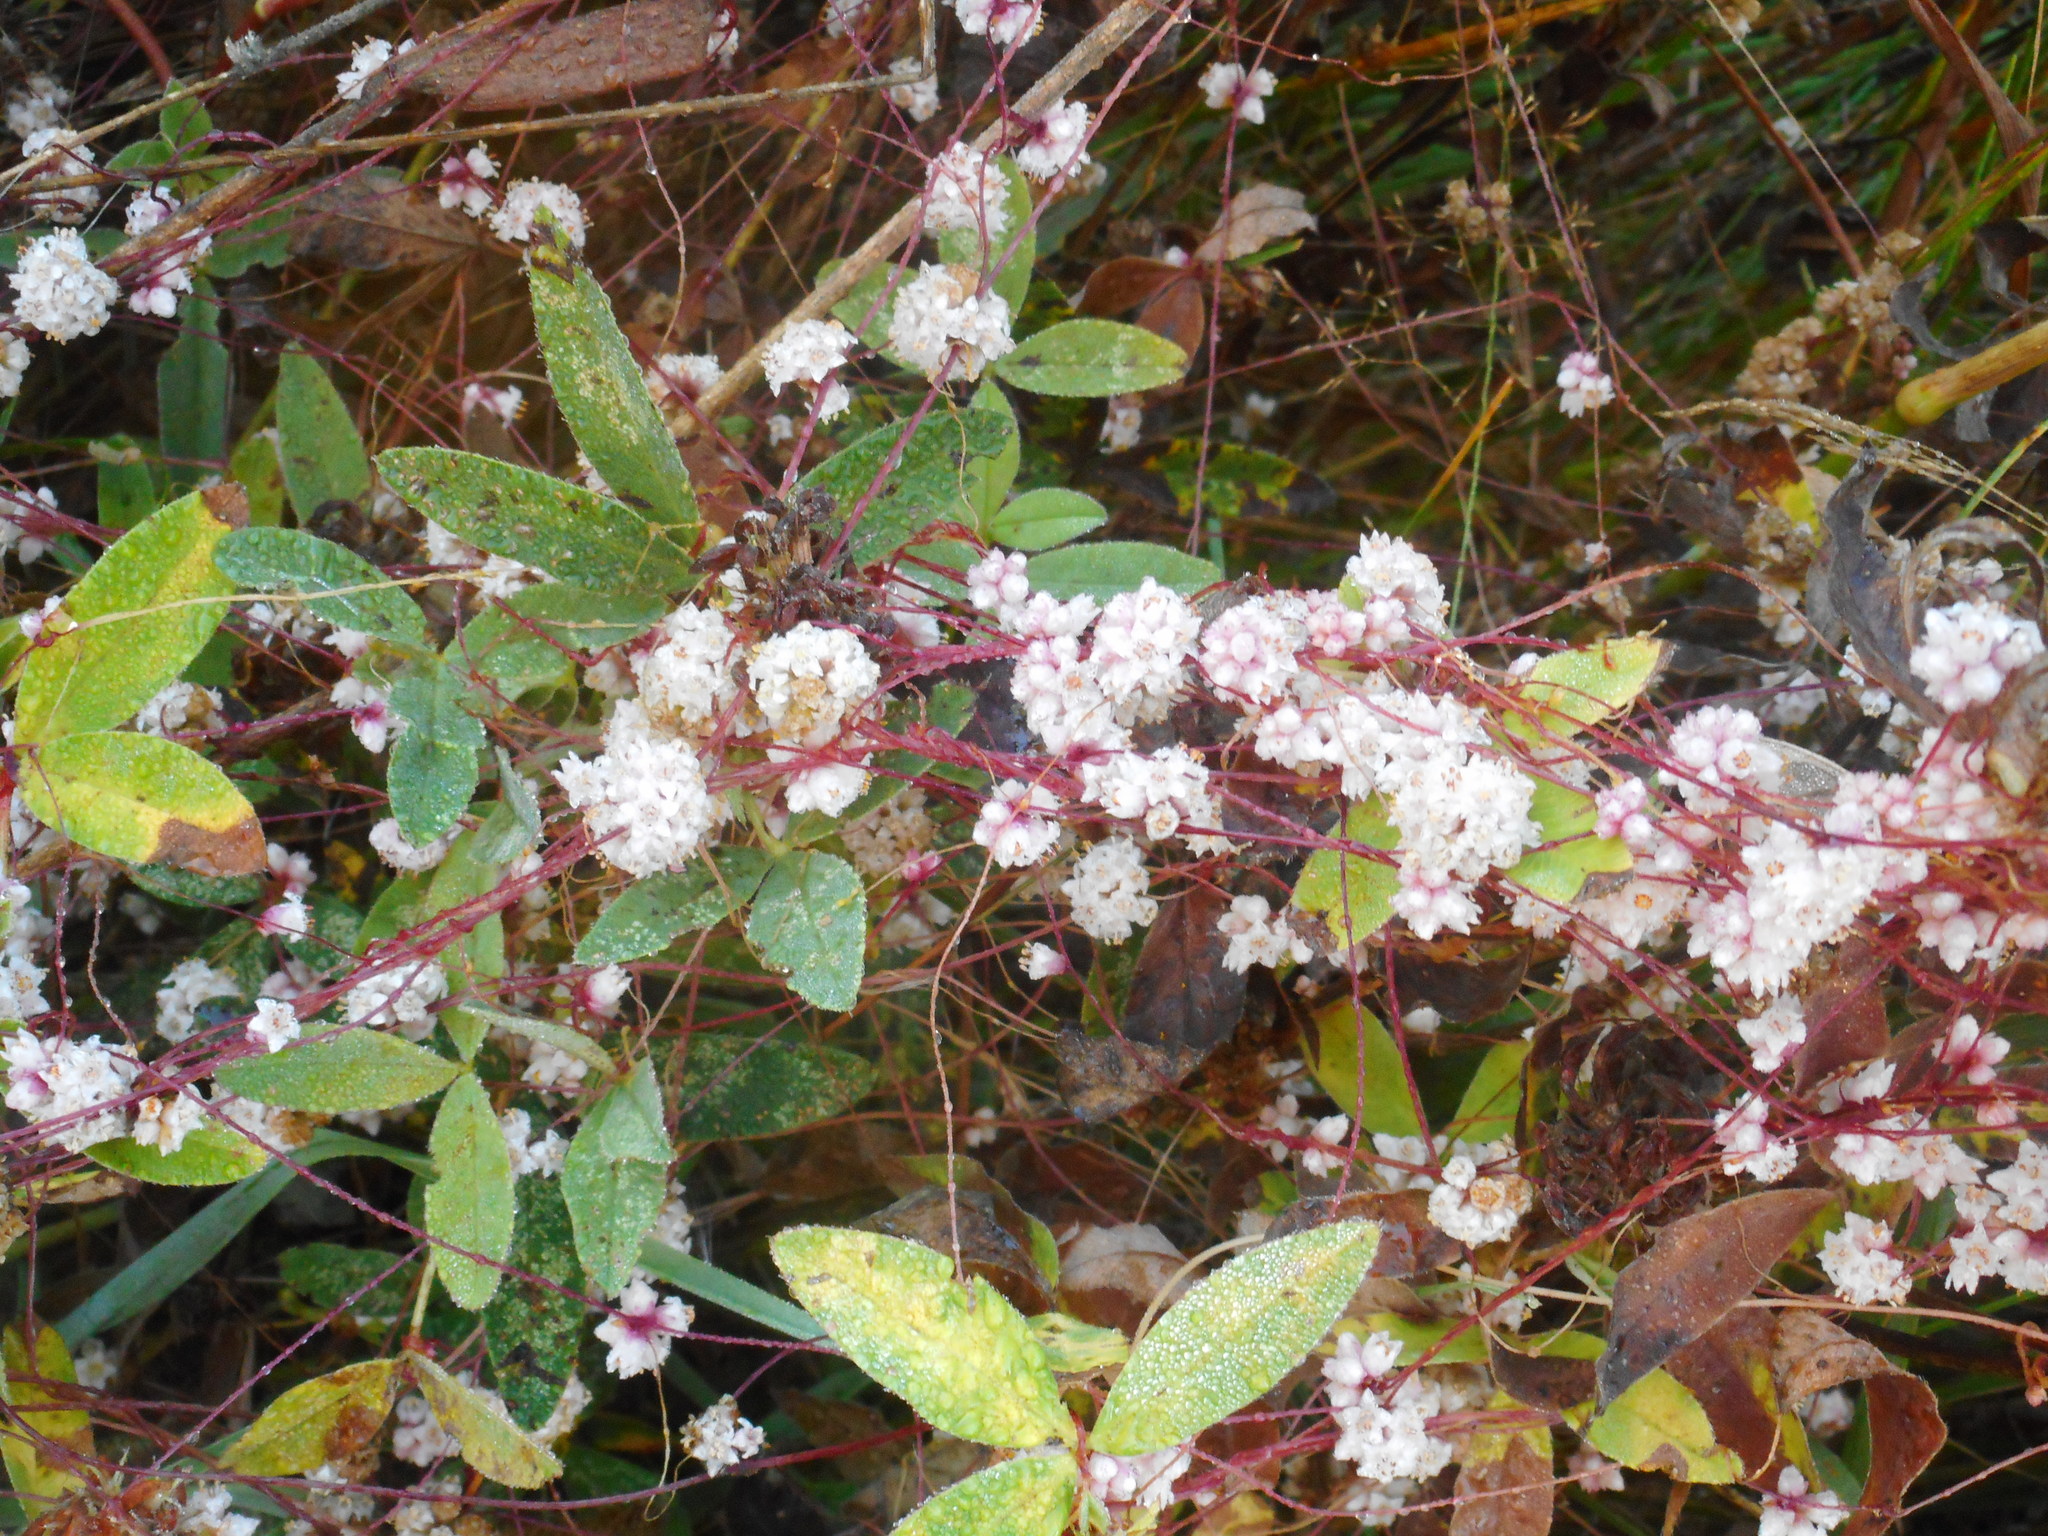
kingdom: Plantae
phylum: Tracheophyta
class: Magnoliopsida
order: Solanales
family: Convolvulaceae
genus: Cuscuta
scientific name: Cuscuta epithymum
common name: Clover dodder
